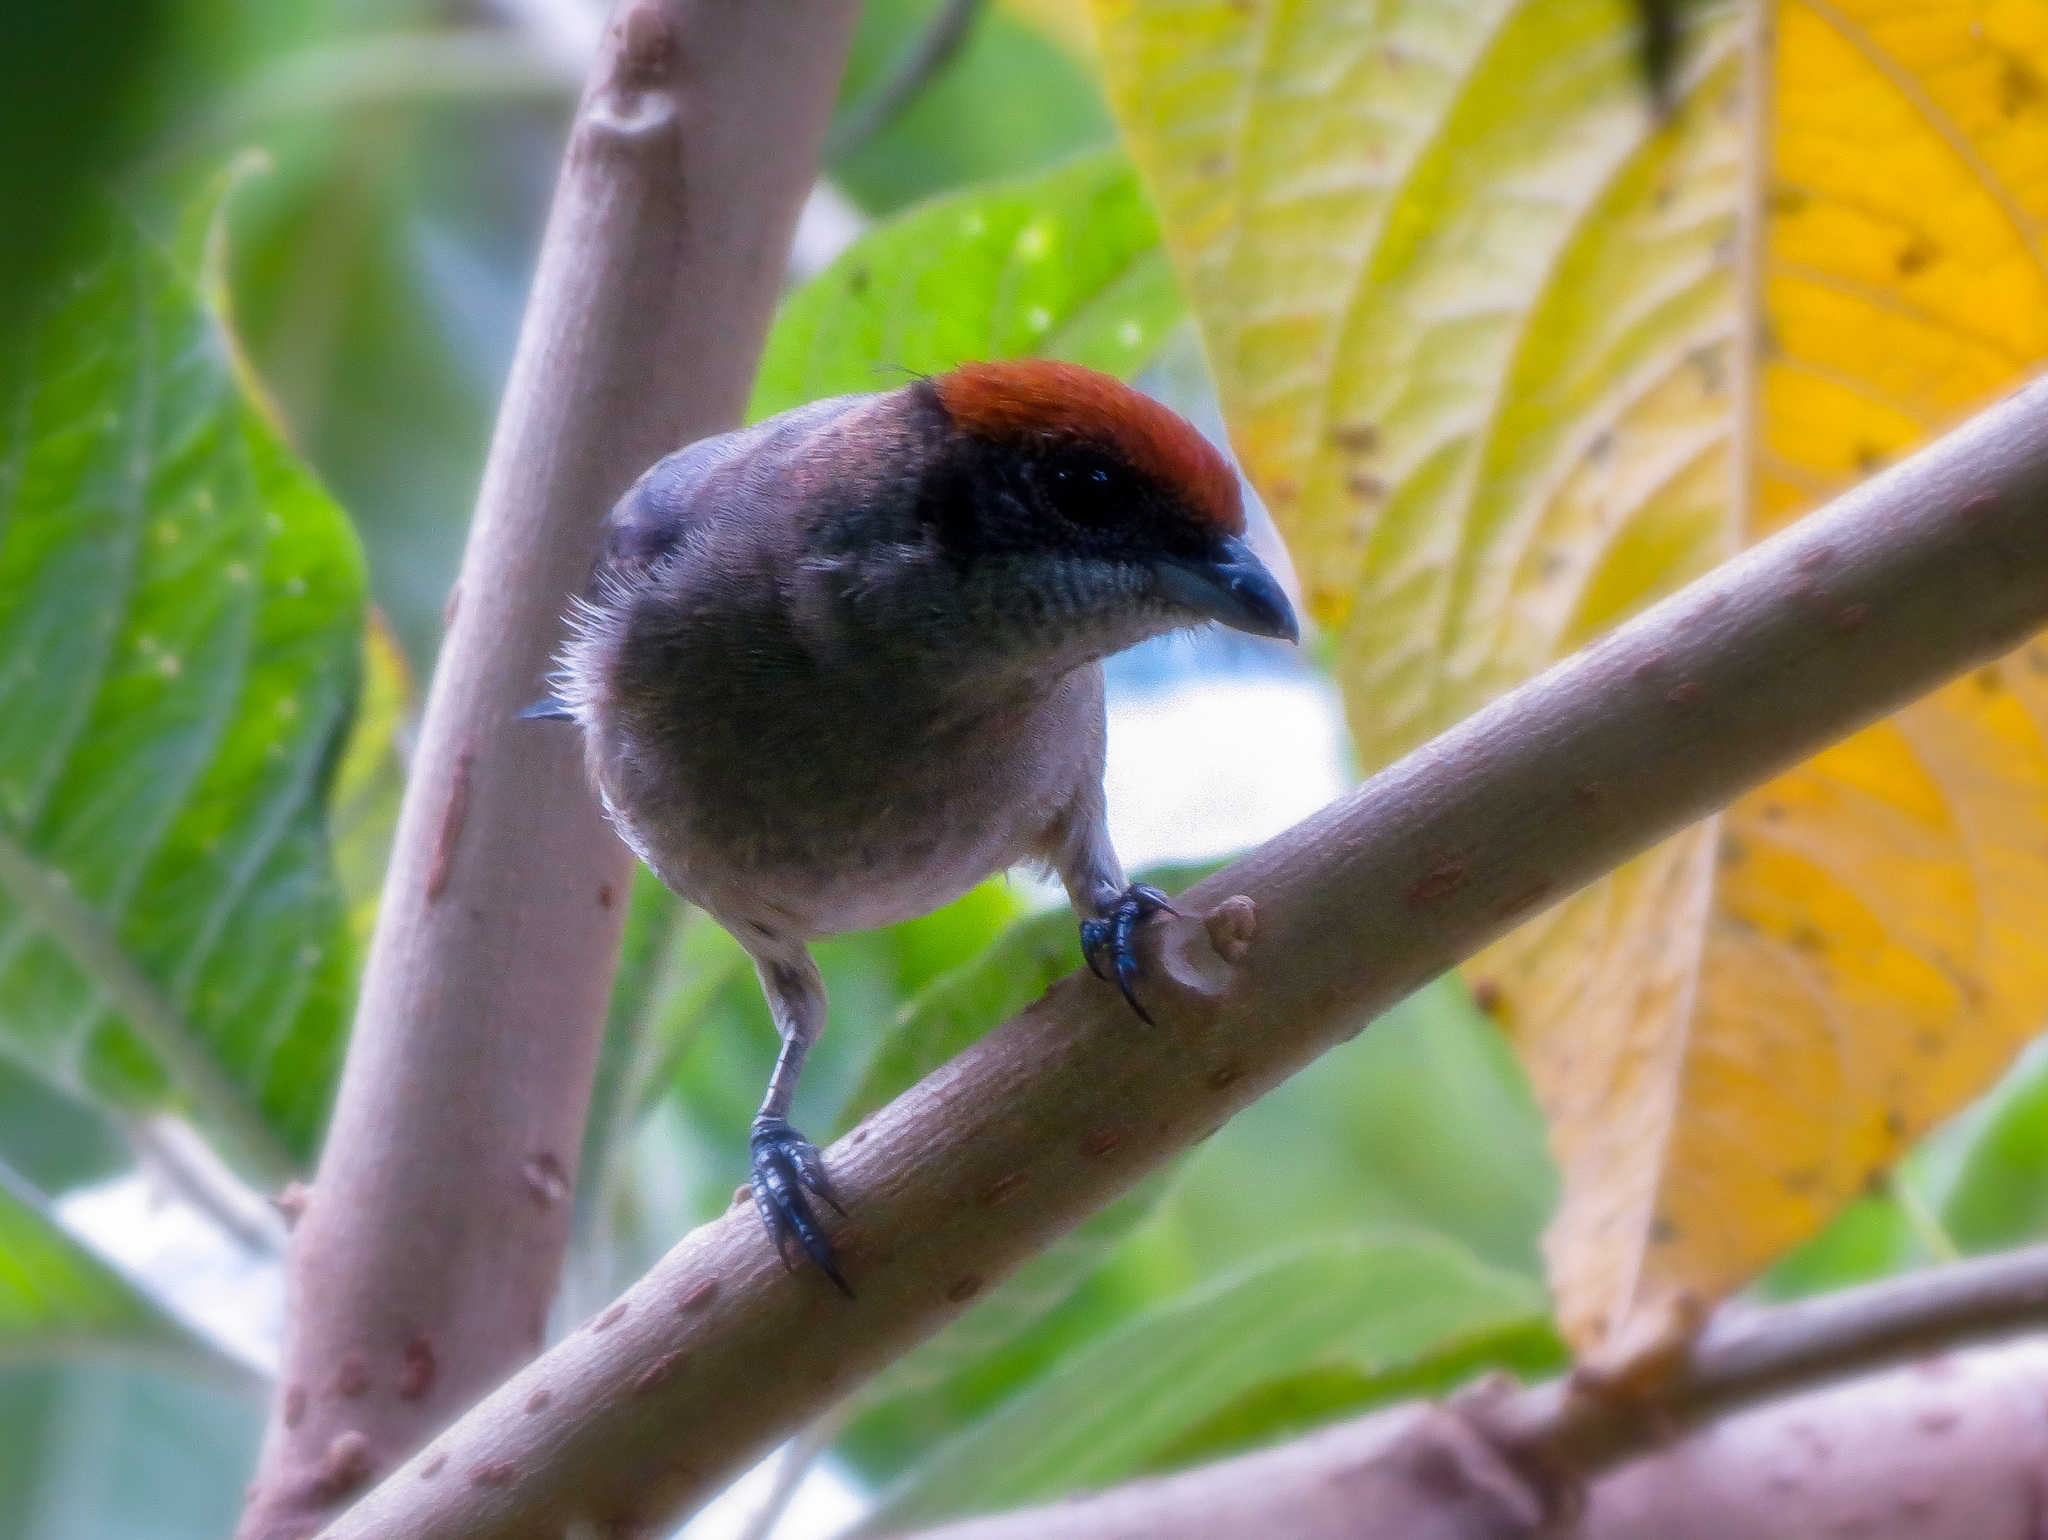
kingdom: Animalia
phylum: Chordata
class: Aves
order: Passeriformes
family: Thraupidae
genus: Stilpnia
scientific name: Stilpnia vitriolina
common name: Scrub tanager
